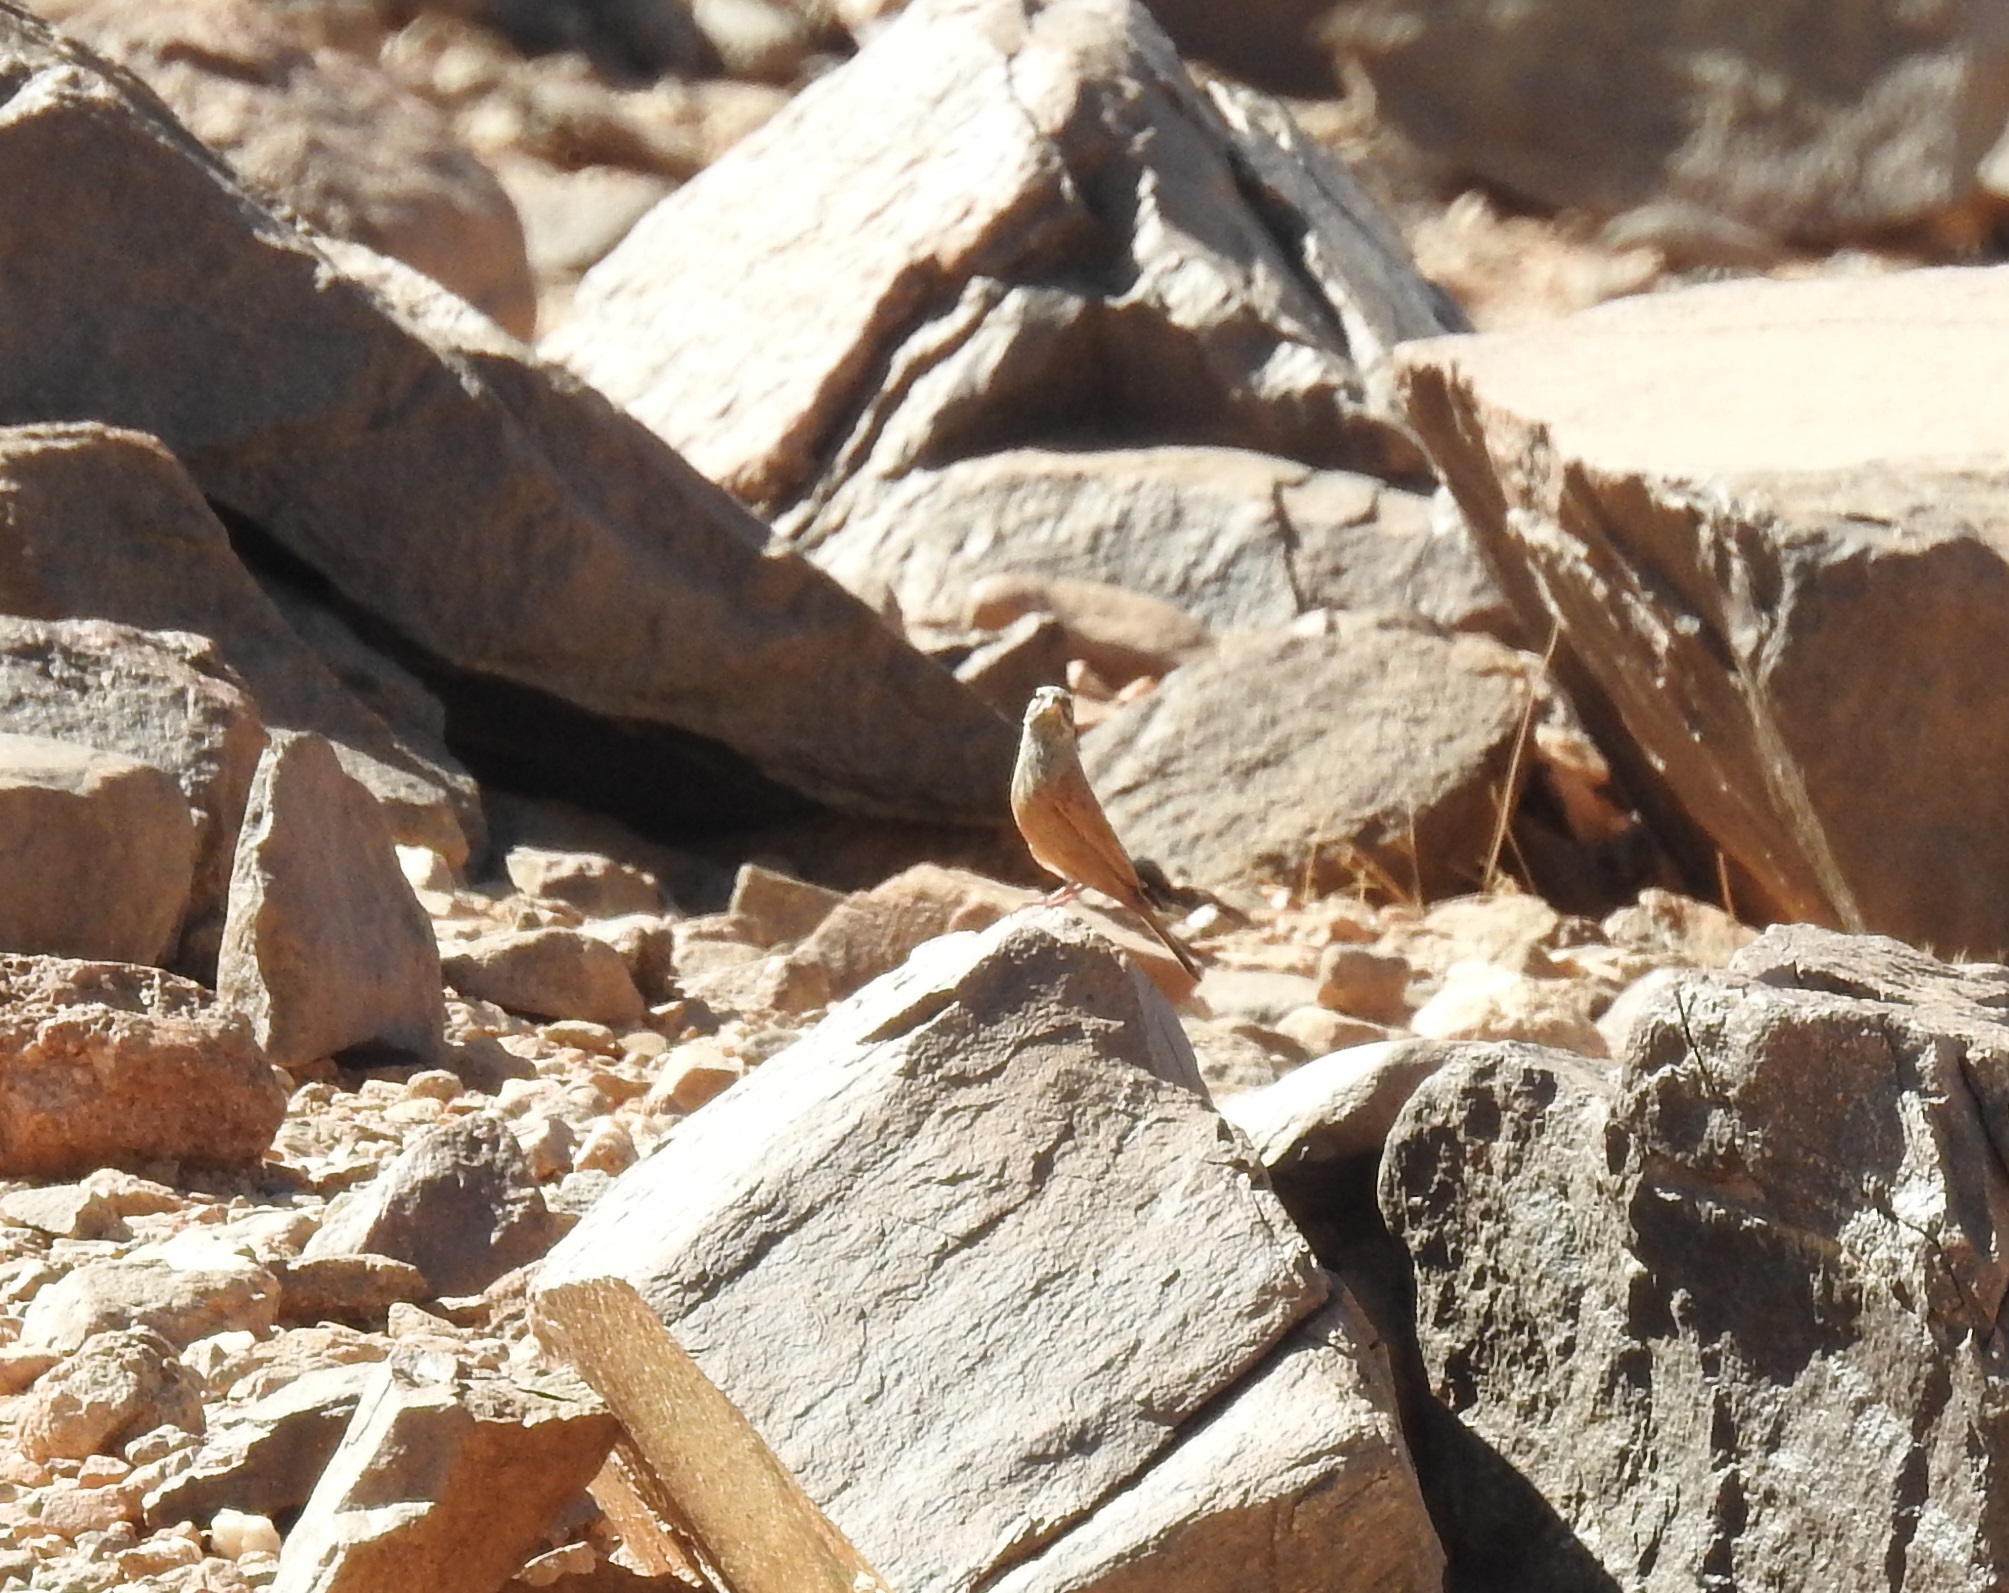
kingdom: Animalia
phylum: Chordata
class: Aves
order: Passeriformes
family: Emberizidae
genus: Emberiza
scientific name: Emberiza sahari
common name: House bunting
